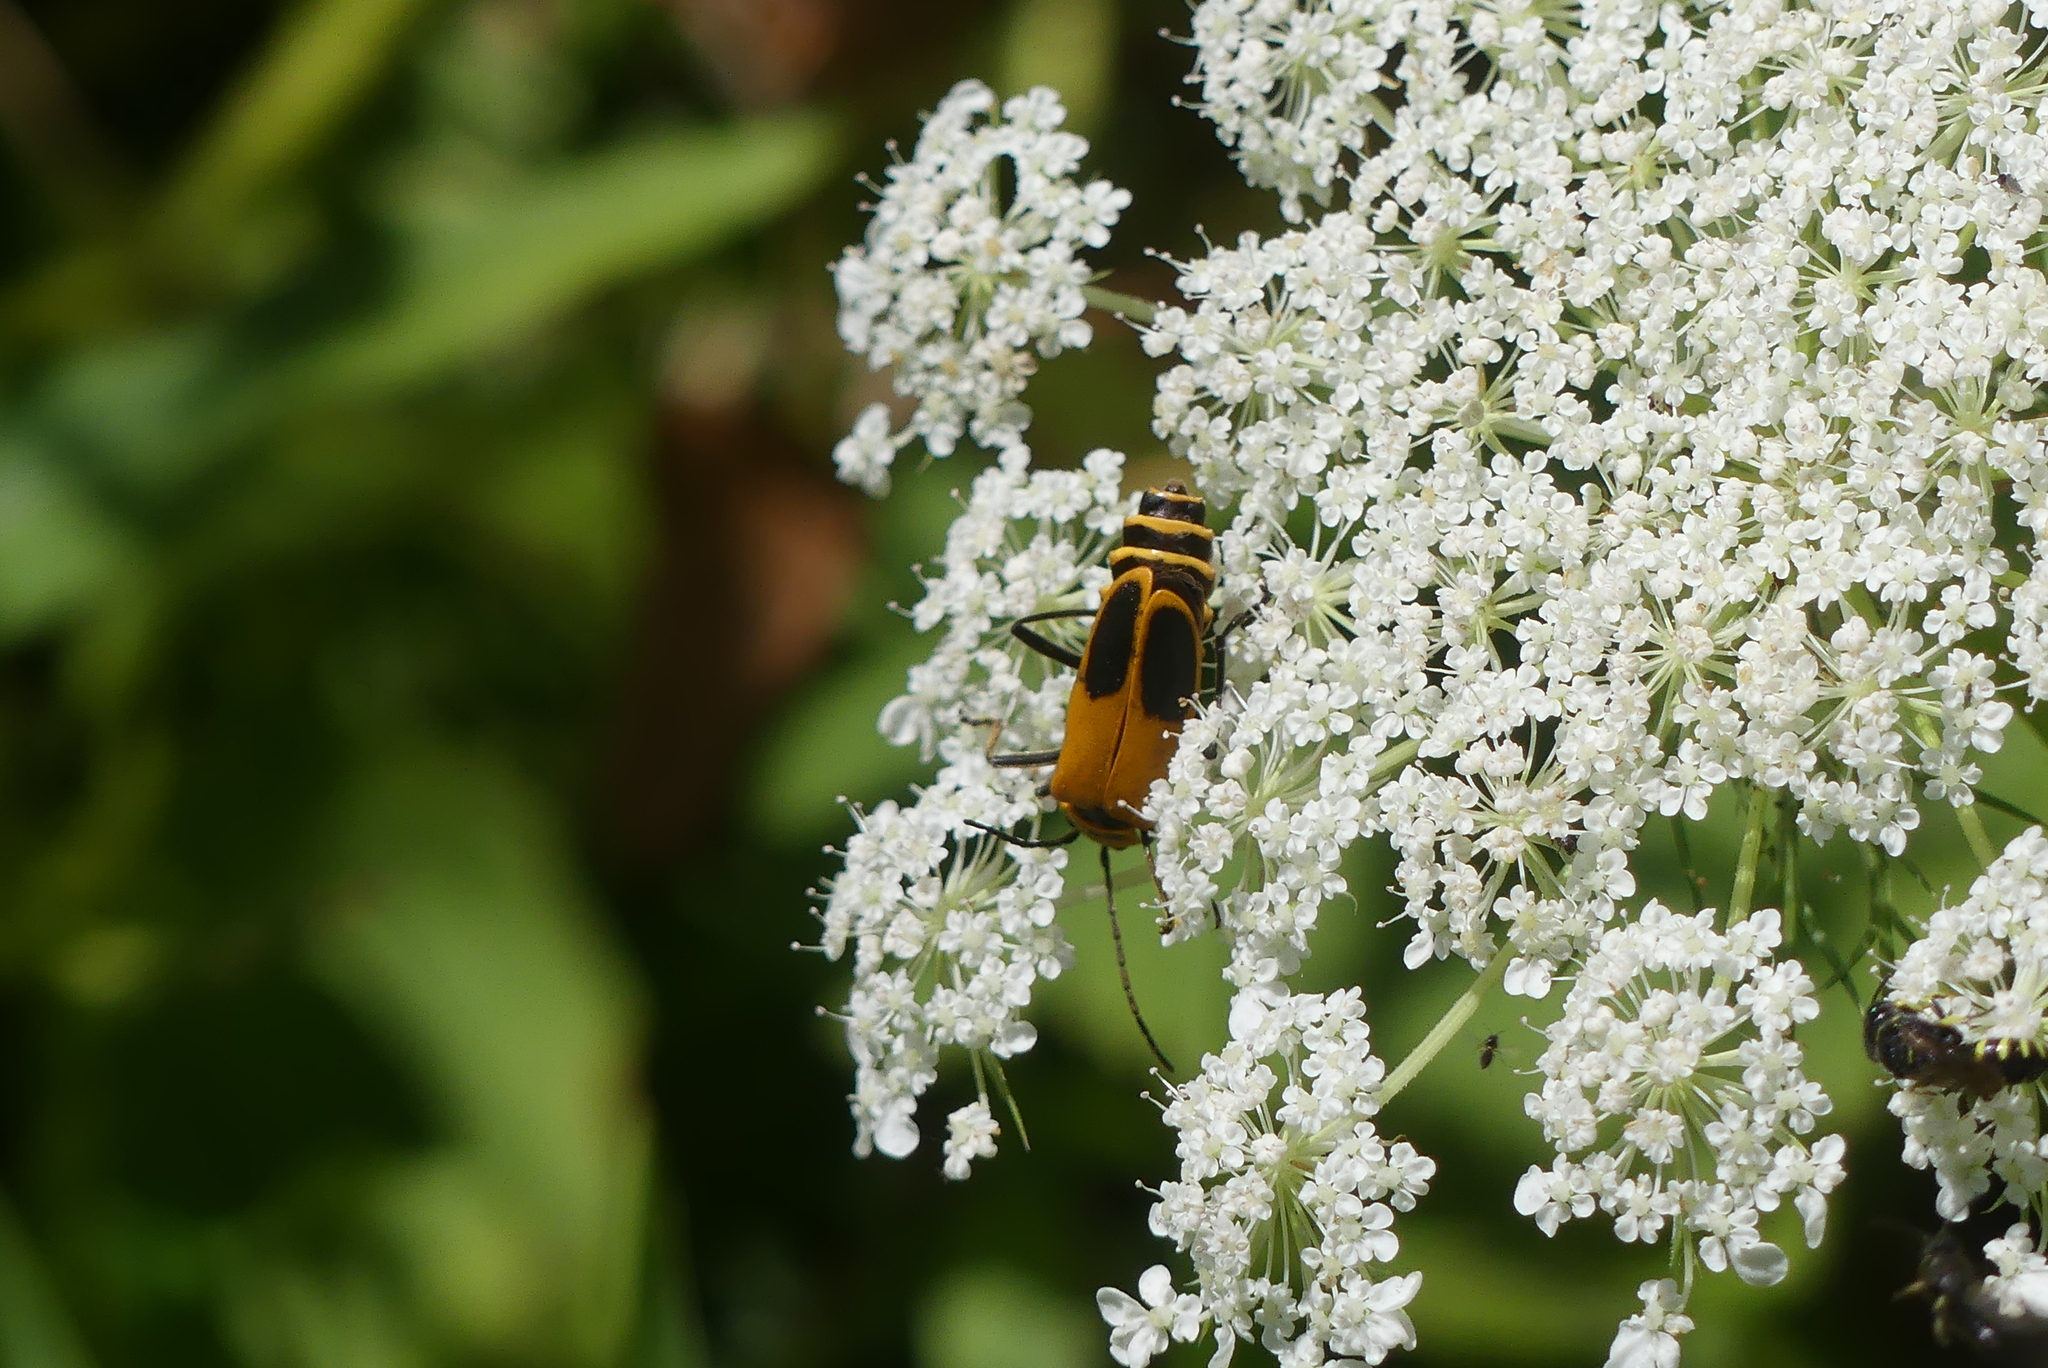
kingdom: Animalia
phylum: Arthropoda
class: Insecta
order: Coleoptera
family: Cantharidae
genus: Chauliognathus
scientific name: Chauliognathus pensylvanicus
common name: Goldenrod soldier beetle
